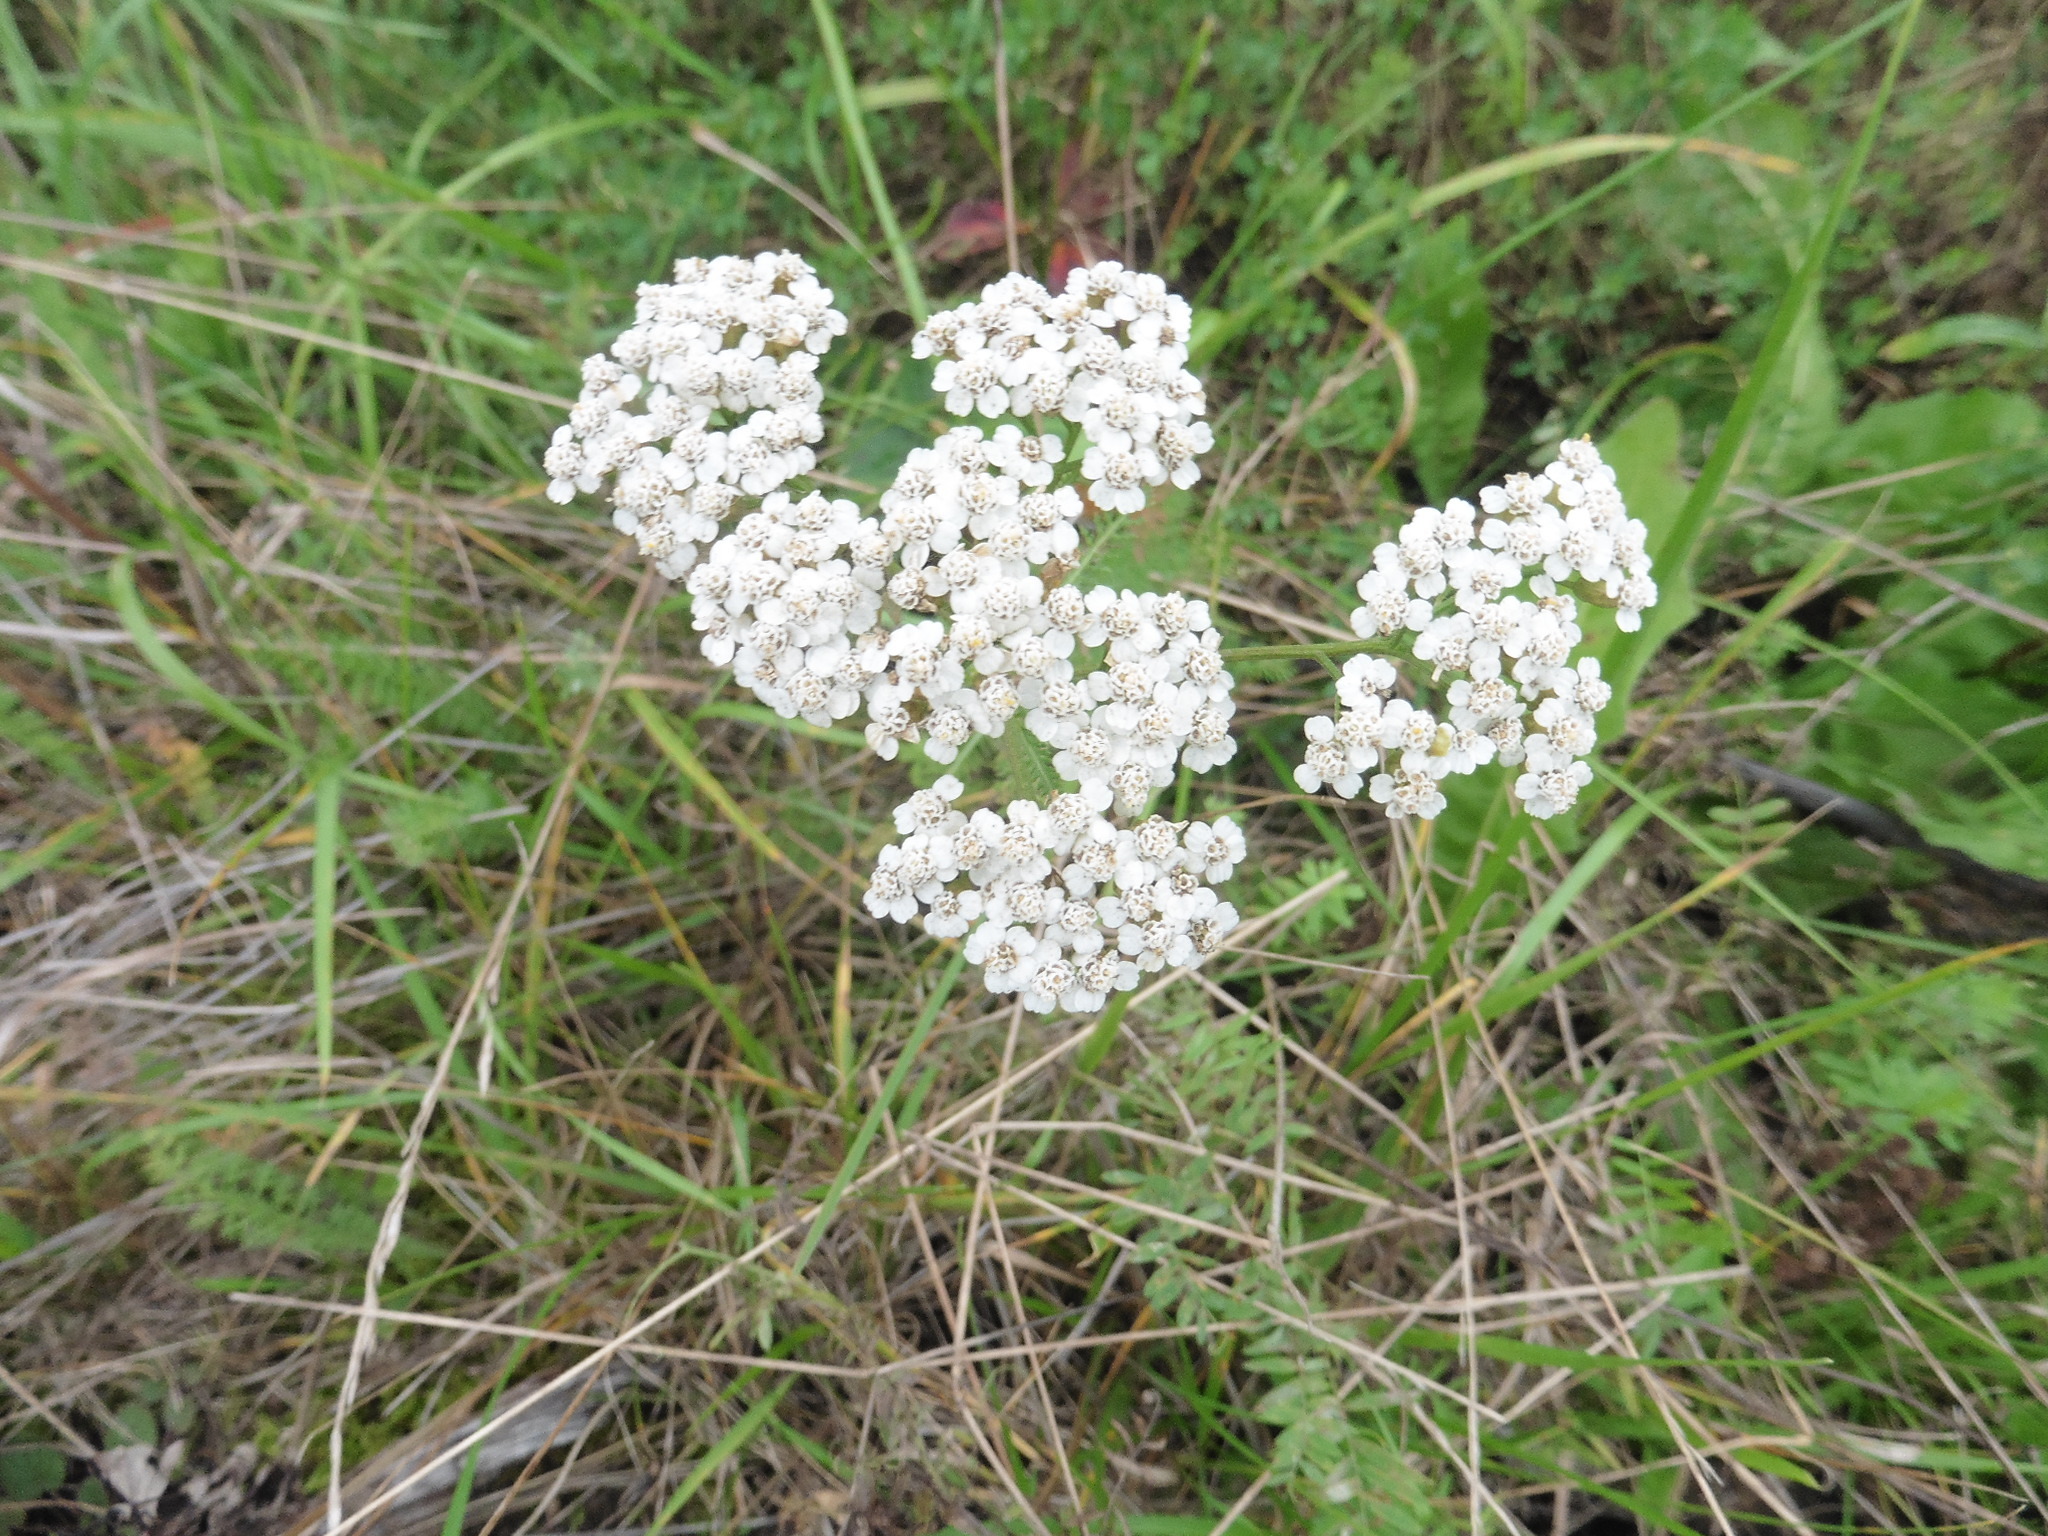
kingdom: Plantae
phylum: Tracheophyta
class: Magnoliopsida
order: Asterales
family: Asteraceae
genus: Achillea
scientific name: Achillea millefolium
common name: Yarrow
